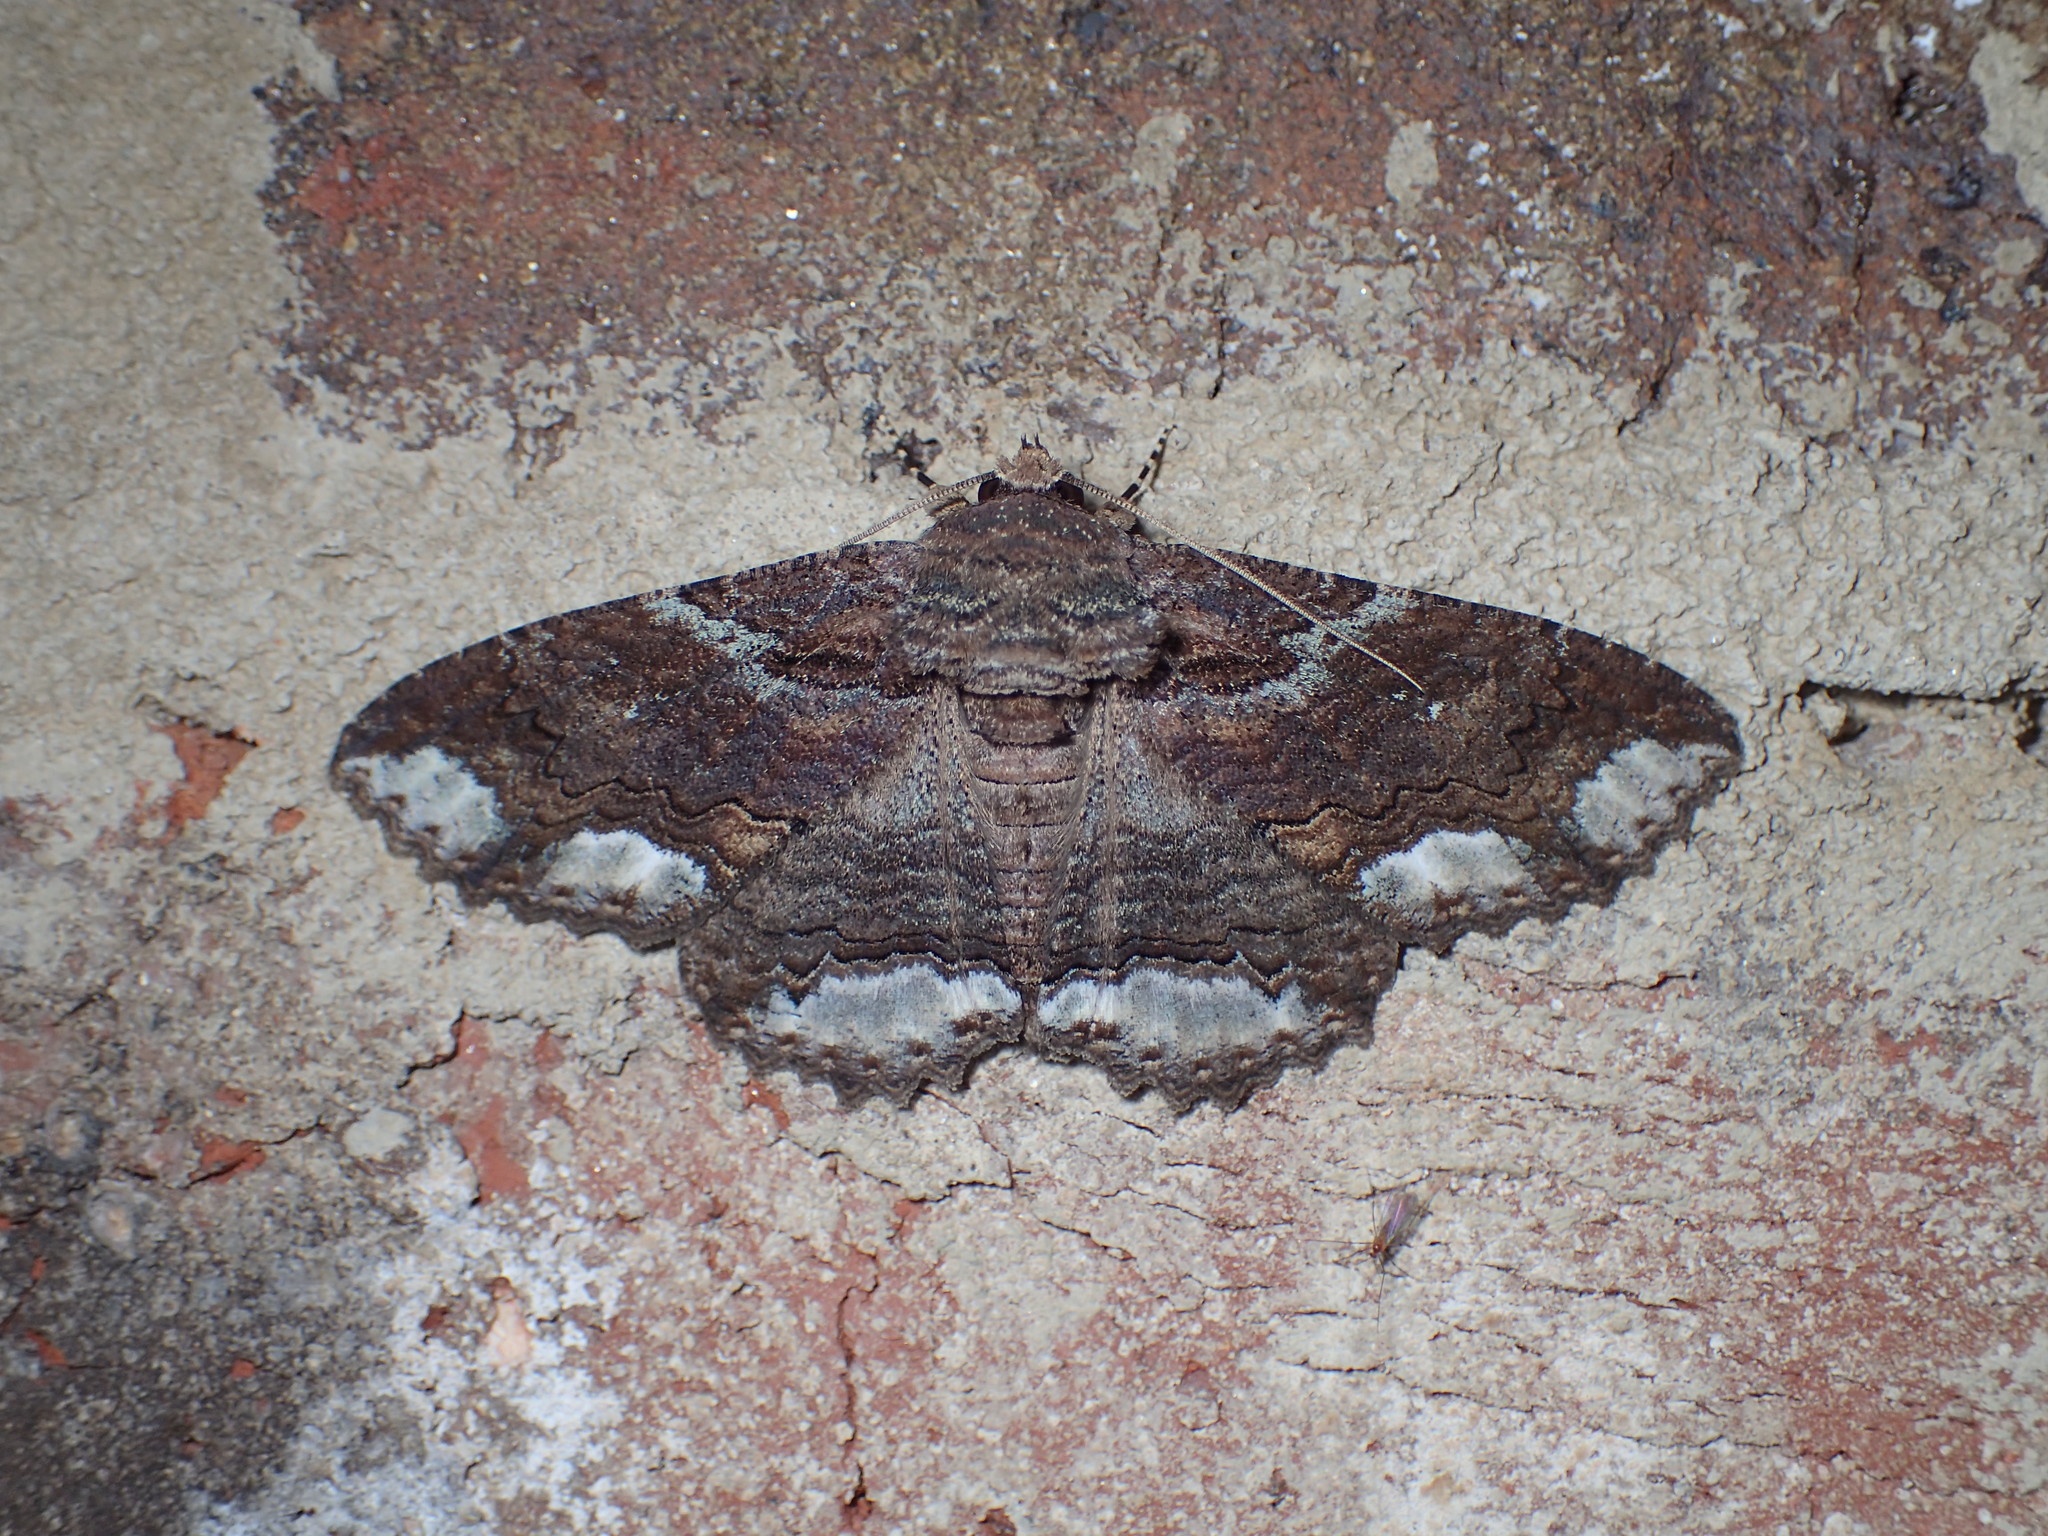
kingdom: Animalia
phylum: Arthropoda
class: Insecta
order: Lepidoptera
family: Erebidae
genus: Zale
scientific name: Zale lunata
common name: Lunate zale moth
